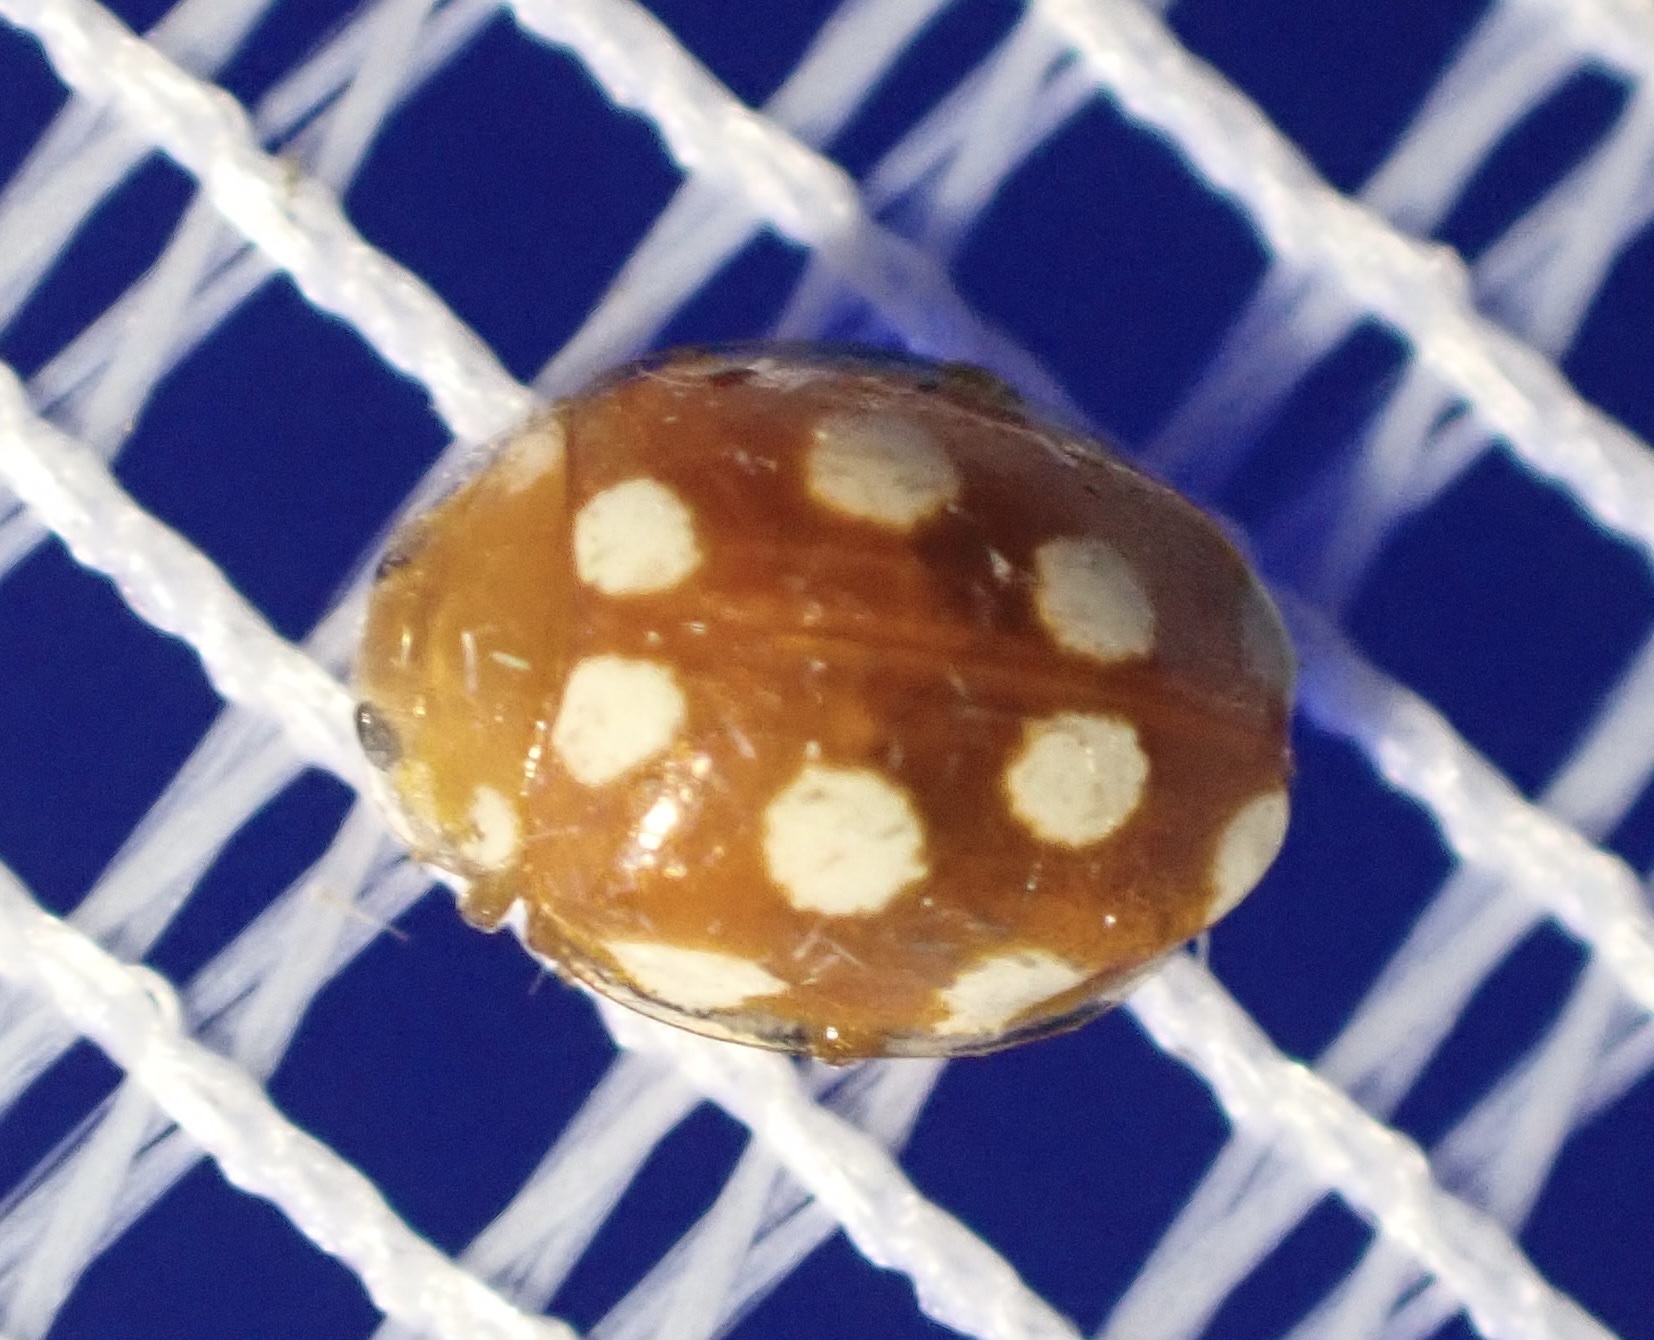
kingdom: Animalia
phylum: Arthropoda
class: Insecta
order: Coleoptera
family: Coccinellidae
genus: Vibidia
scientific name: Vibidia duodecimguttata
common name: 12-spot ladybird
